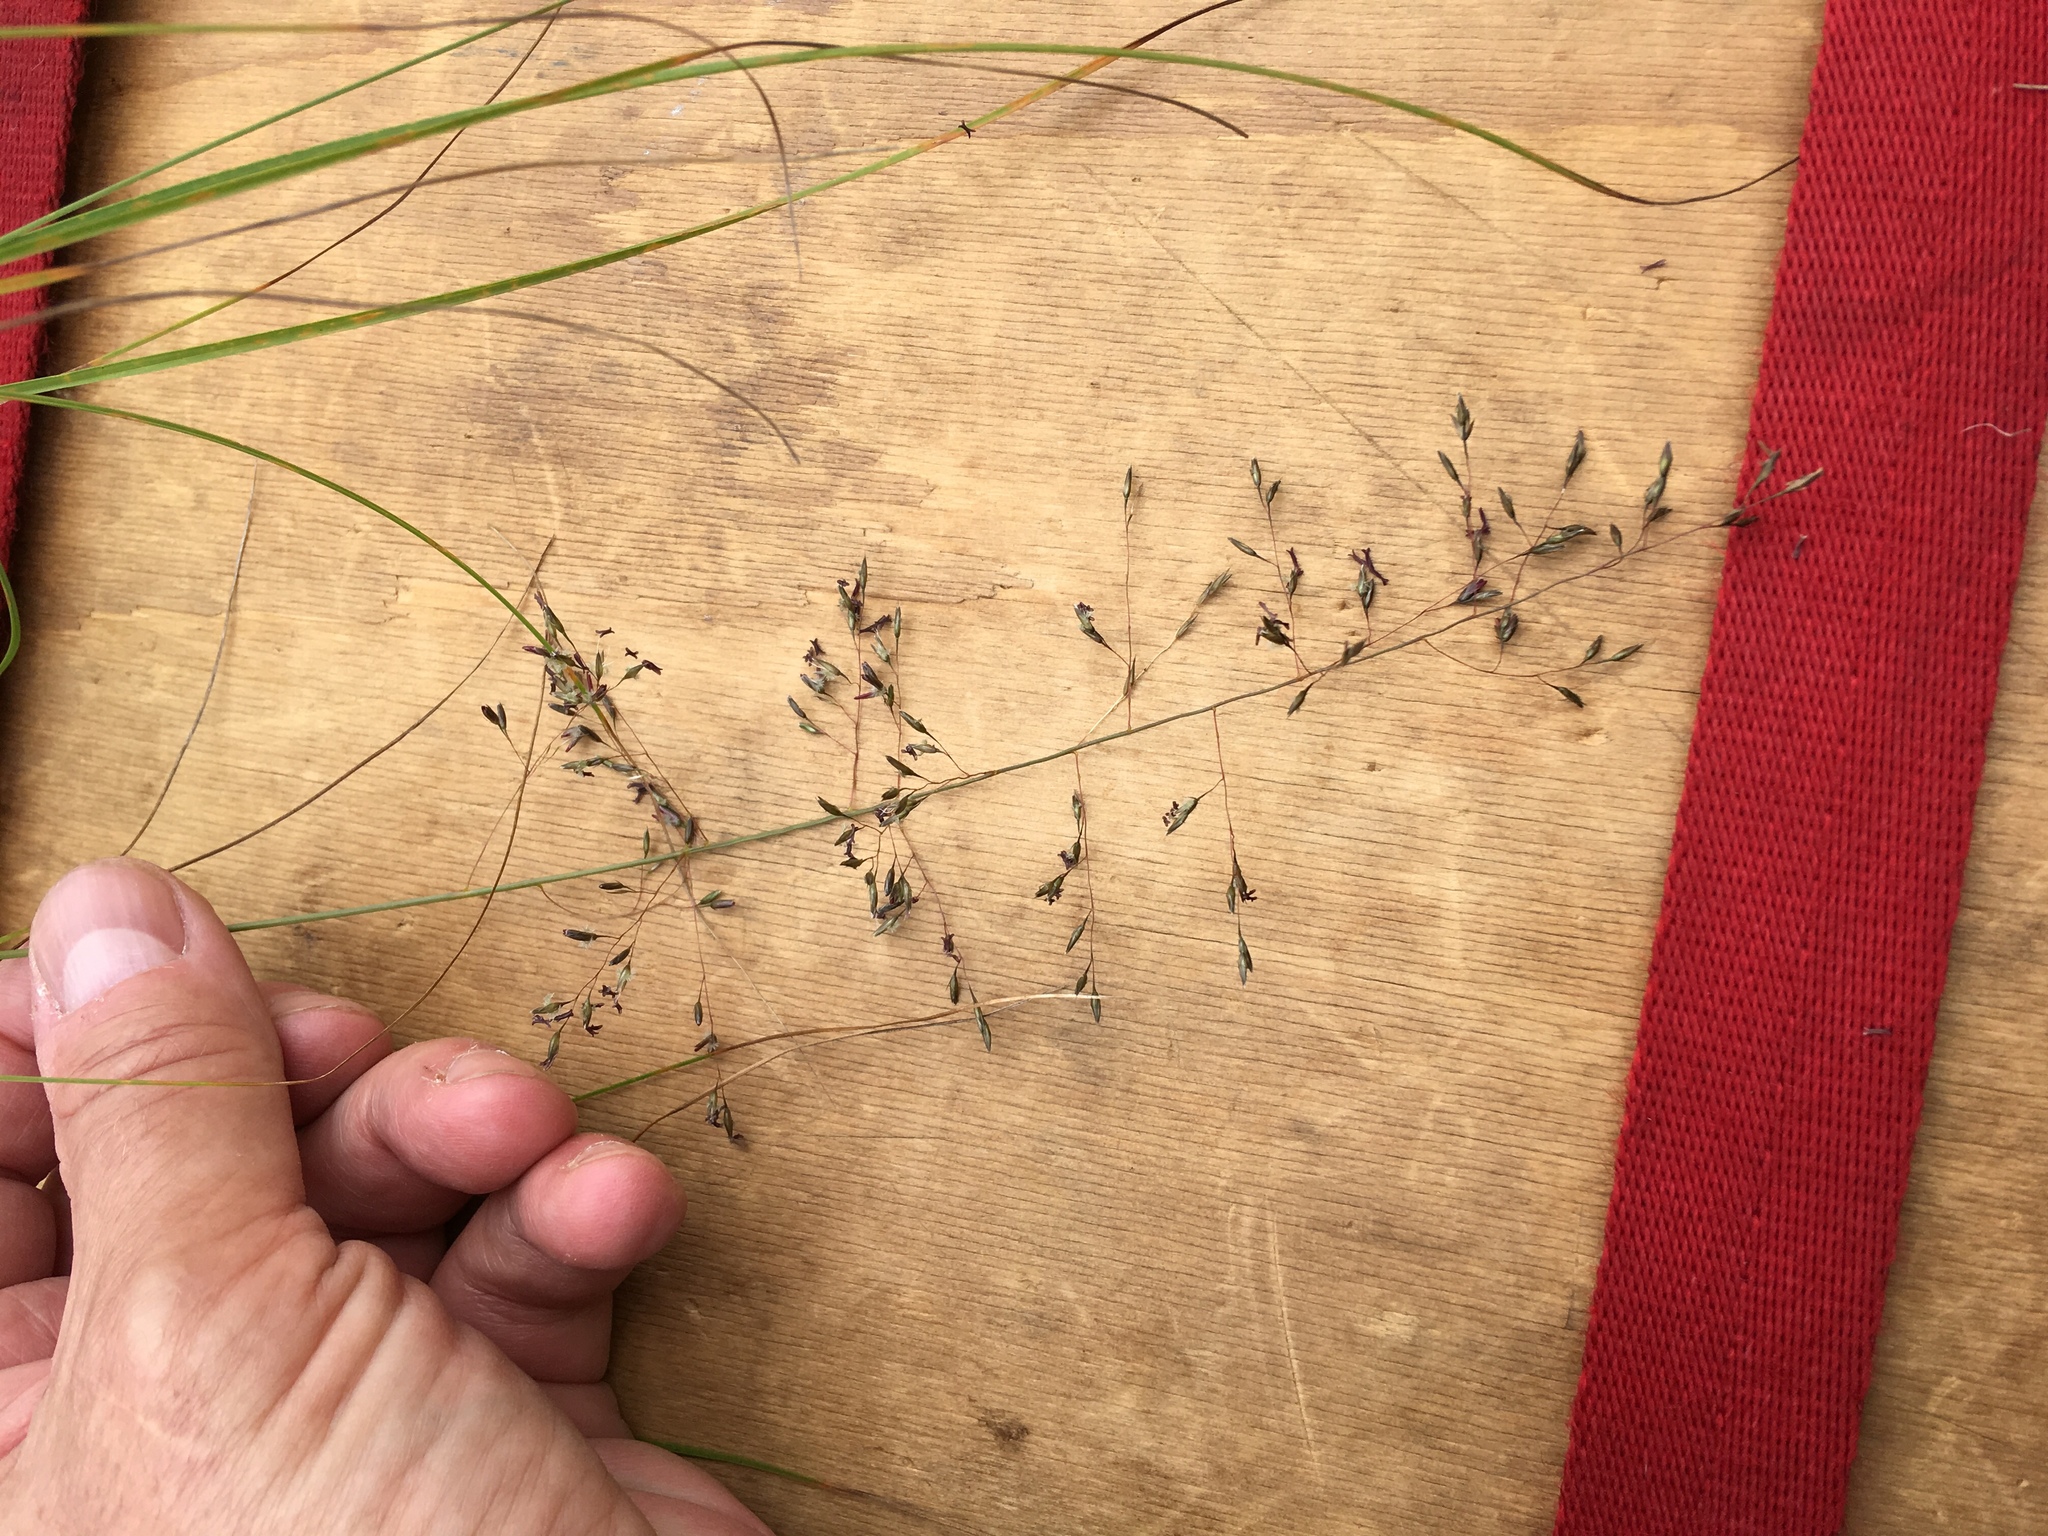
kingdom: Plantae
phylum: Tracheophyta
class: Liliopsida
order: Poales
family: Poaceae
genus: Sporobolus
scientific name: Sporobolus heterolepis
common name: Prairie dropseed
